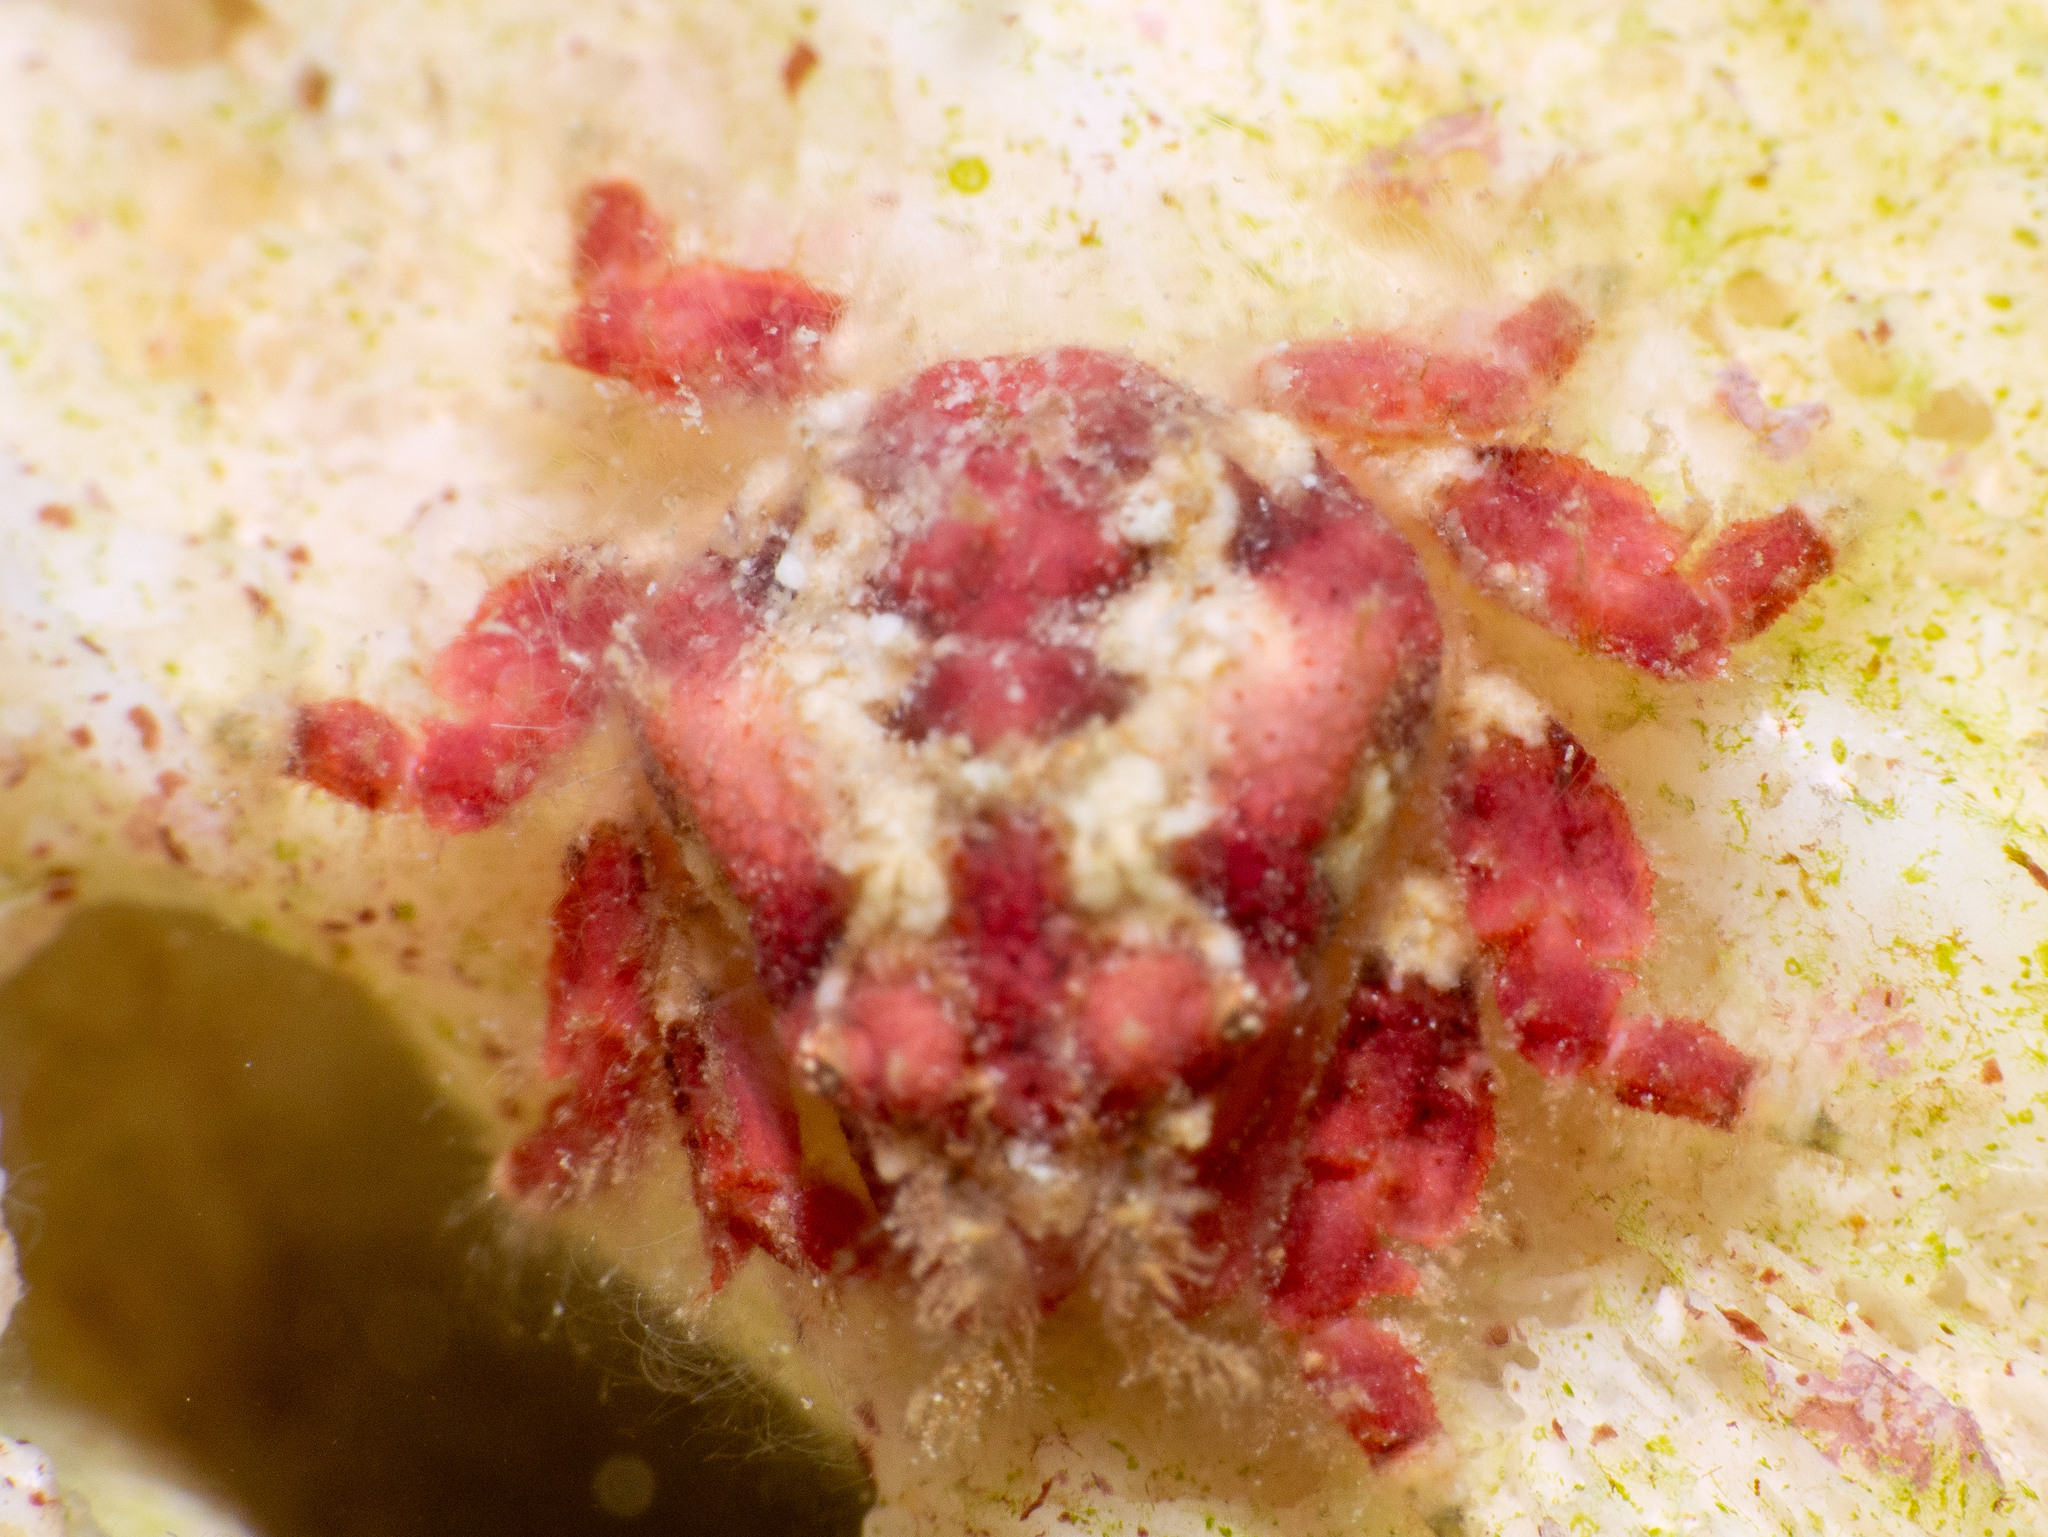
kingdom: Animalia
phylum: Arthropoda
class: Malacostraca
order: Decapoda
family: Mithracidae
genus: Thoe
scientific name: Thoe puella
